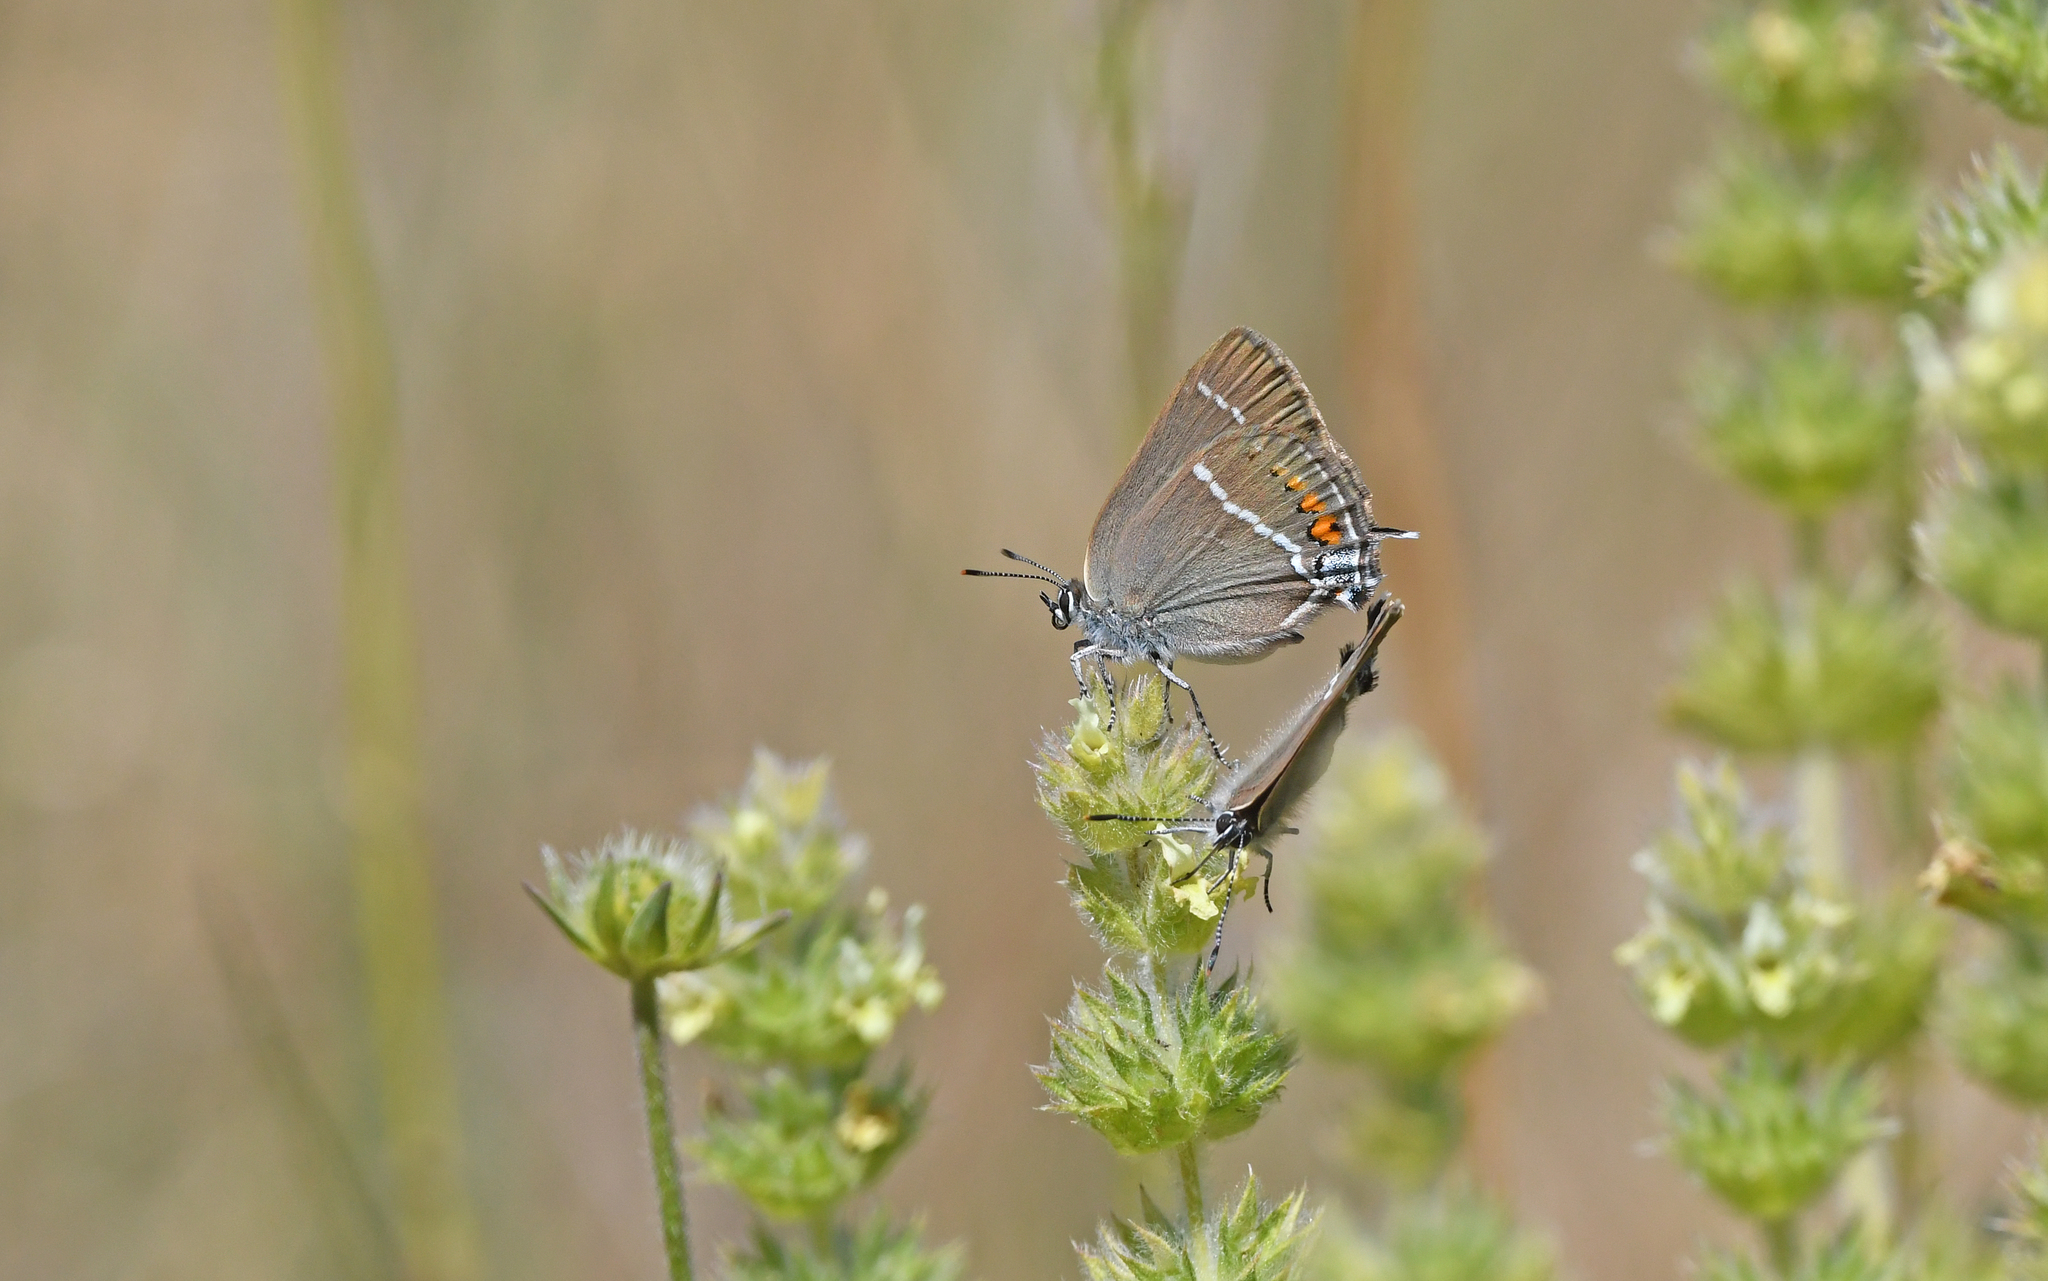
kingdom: Animalia
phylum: Arthropoda
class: Insecta
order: Lepidoptera
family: Lycaenidae
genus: Tuttiola
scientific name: Tuttiola spini
